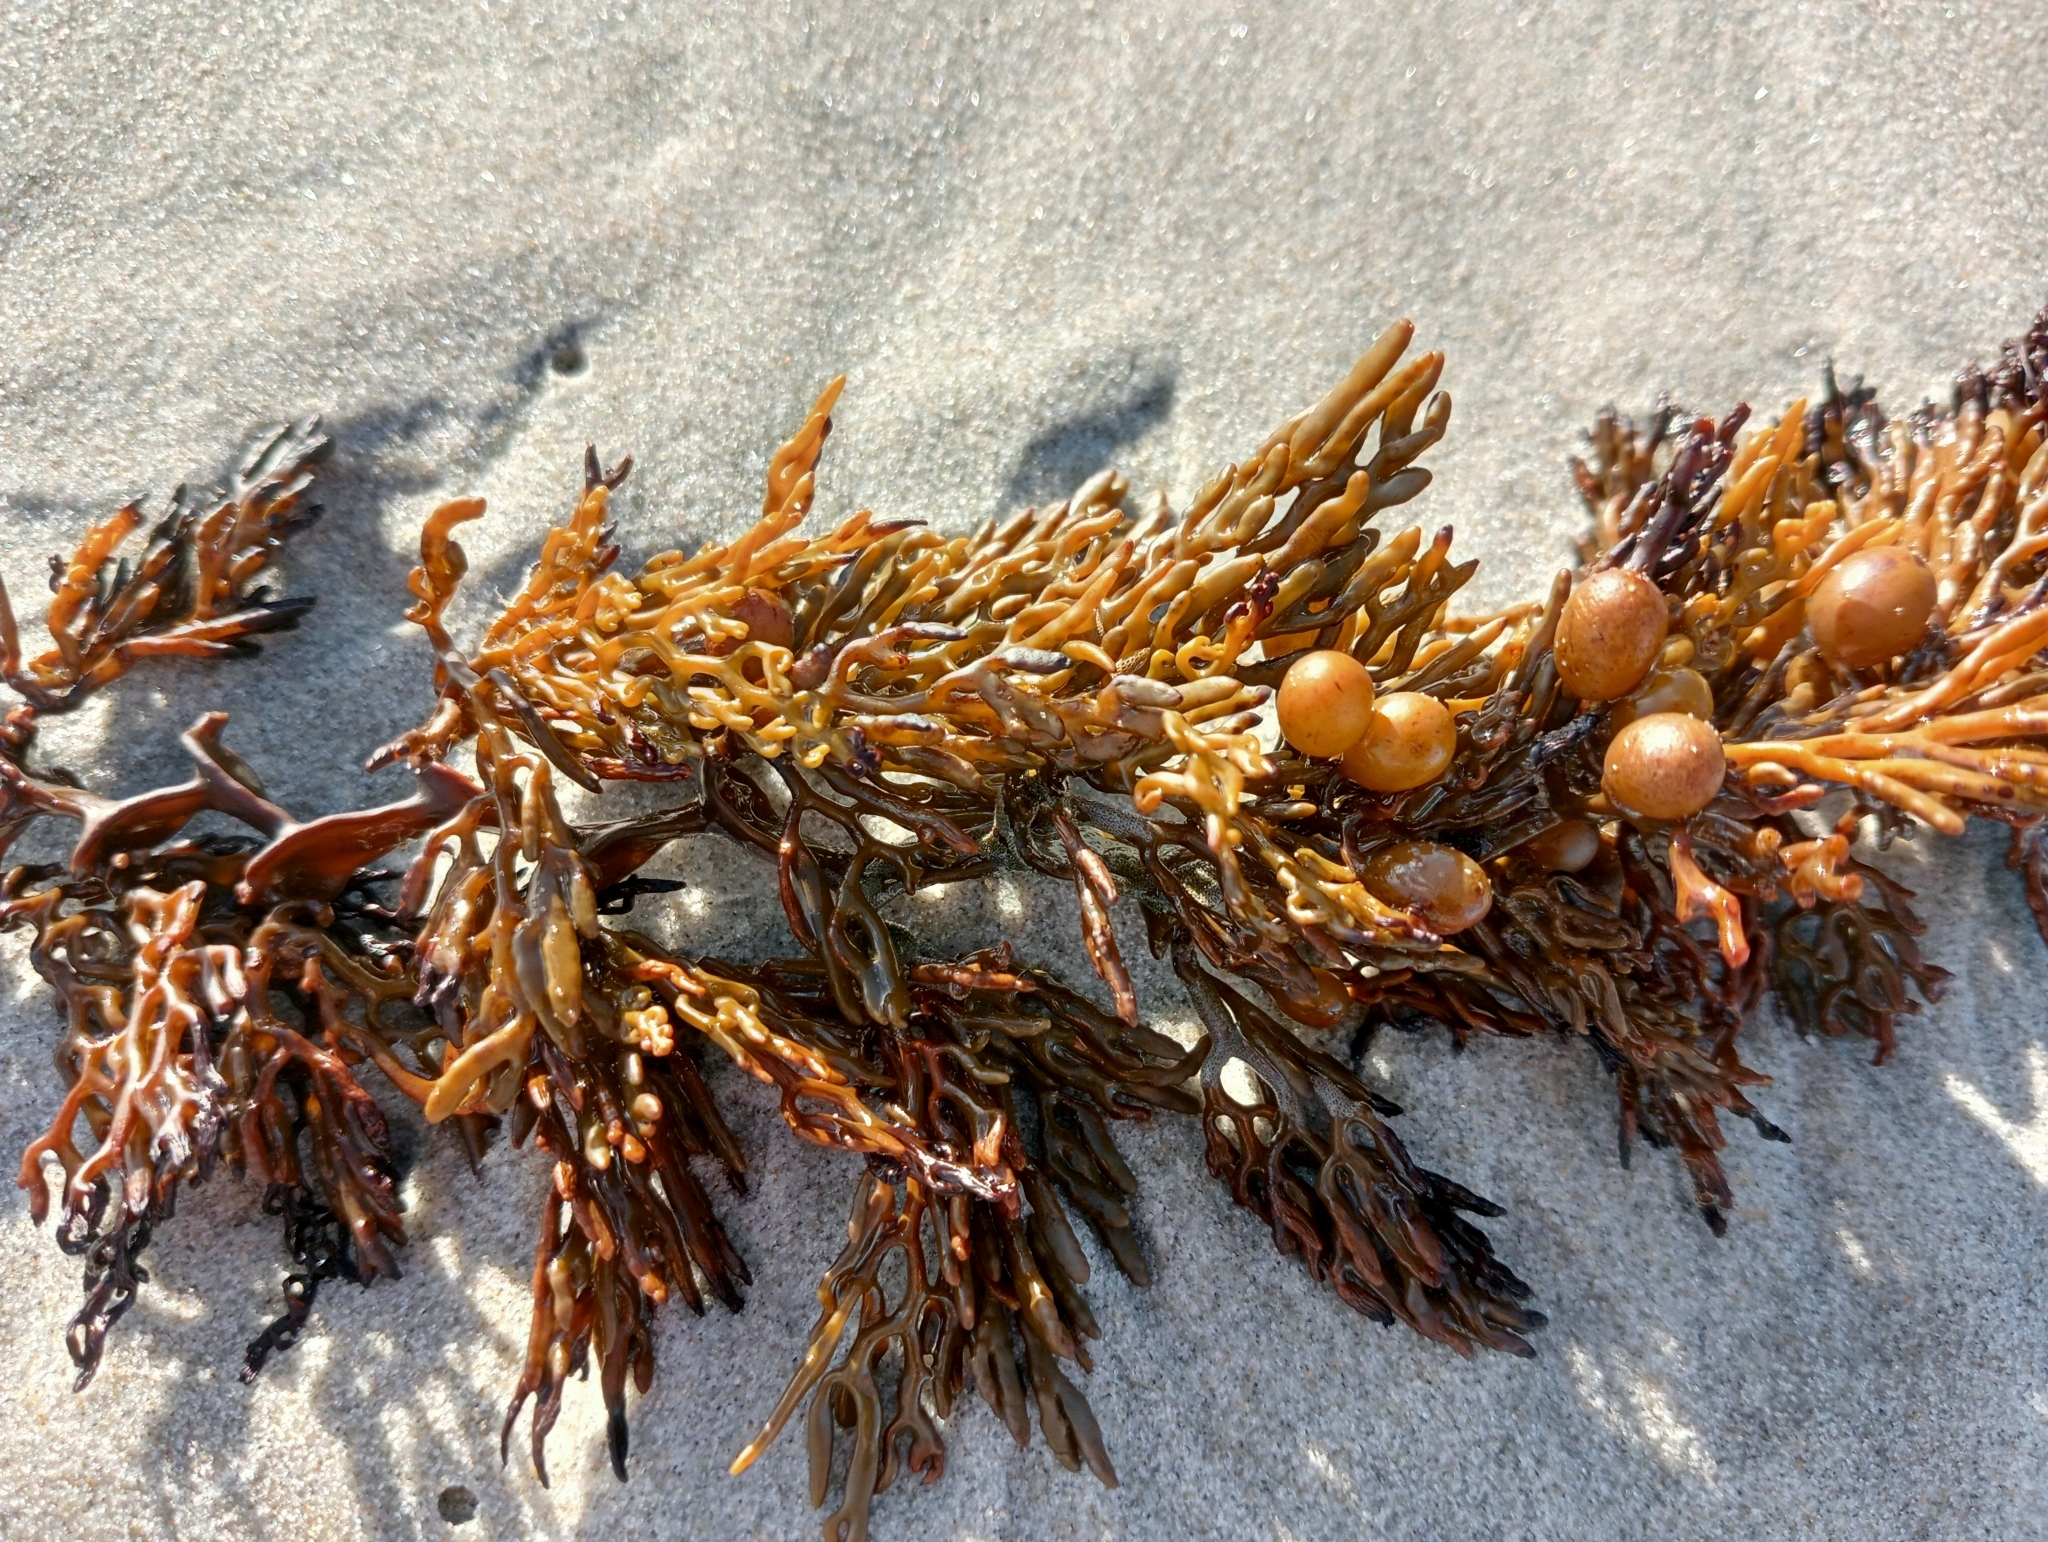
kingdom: Chromista
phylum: Ochrophyta
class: Phaeophyceae
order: Fucales
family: Sargassaceae
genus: Cystophora
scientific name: Cystophora scalaris
